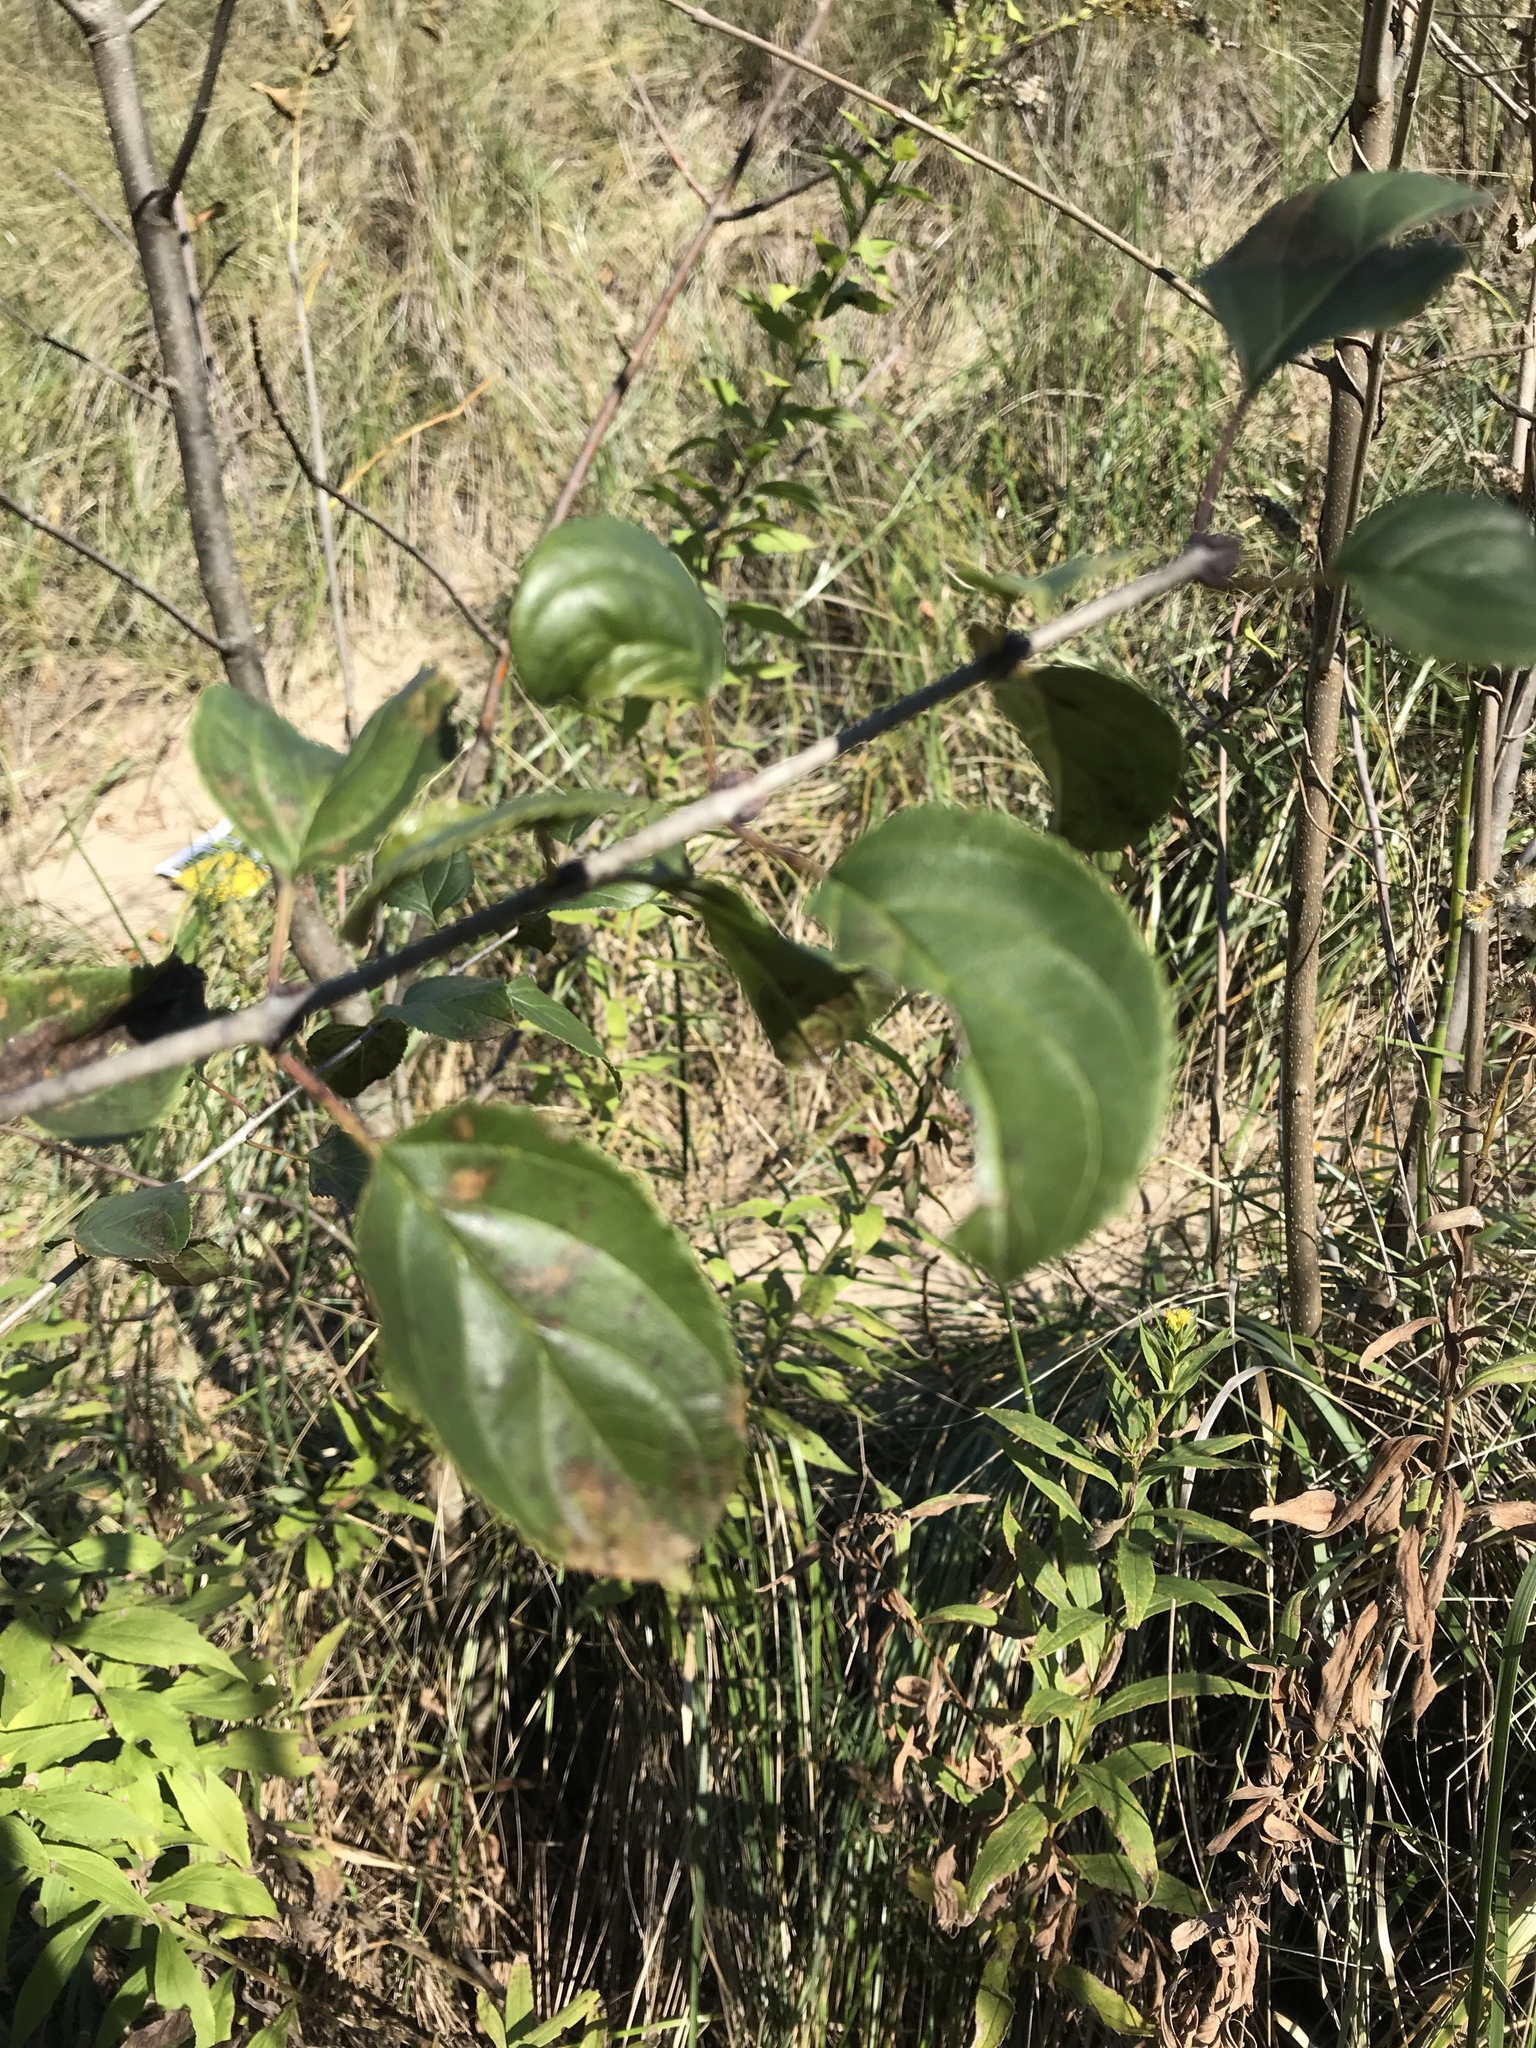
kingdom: Plantae
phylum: Tracheophyta
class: Magnoliopsida
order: Rosales
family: Rhamnaceae
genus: Rhamnus
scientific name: Rhamnus cathartica
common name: Common buckthorn
